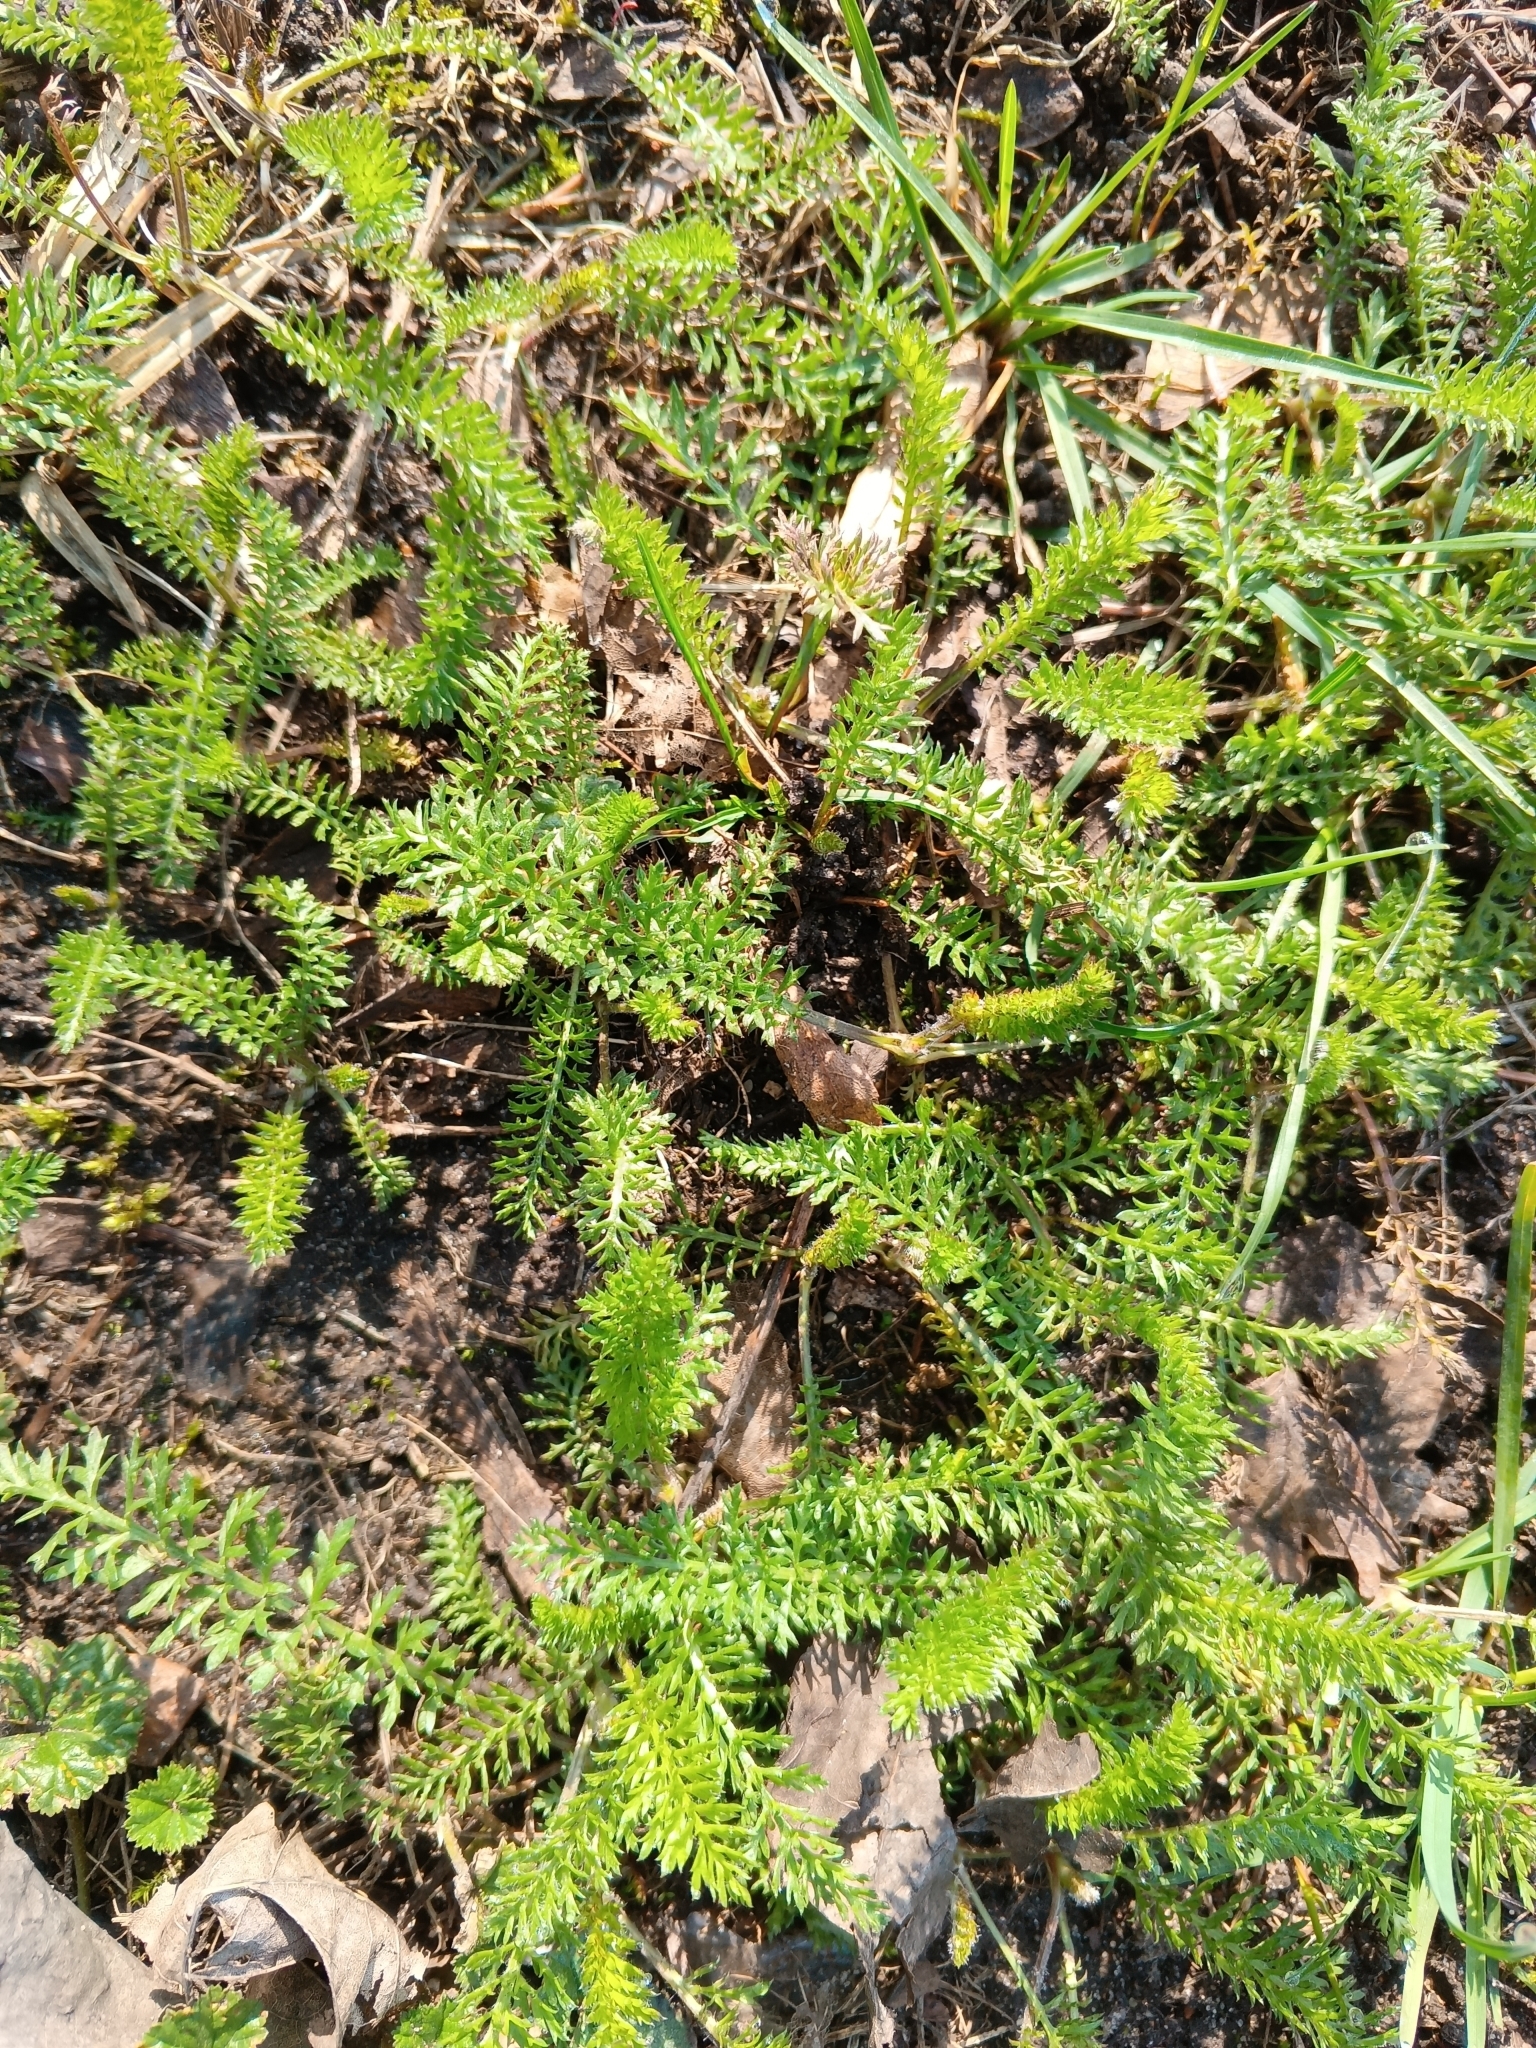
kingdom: Plantae
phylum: Tracheophyta
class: Magnoliopsida
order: Asterales
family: Asteraceae
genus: Achillea
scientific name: Achillea millefolium
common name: Yarrow
